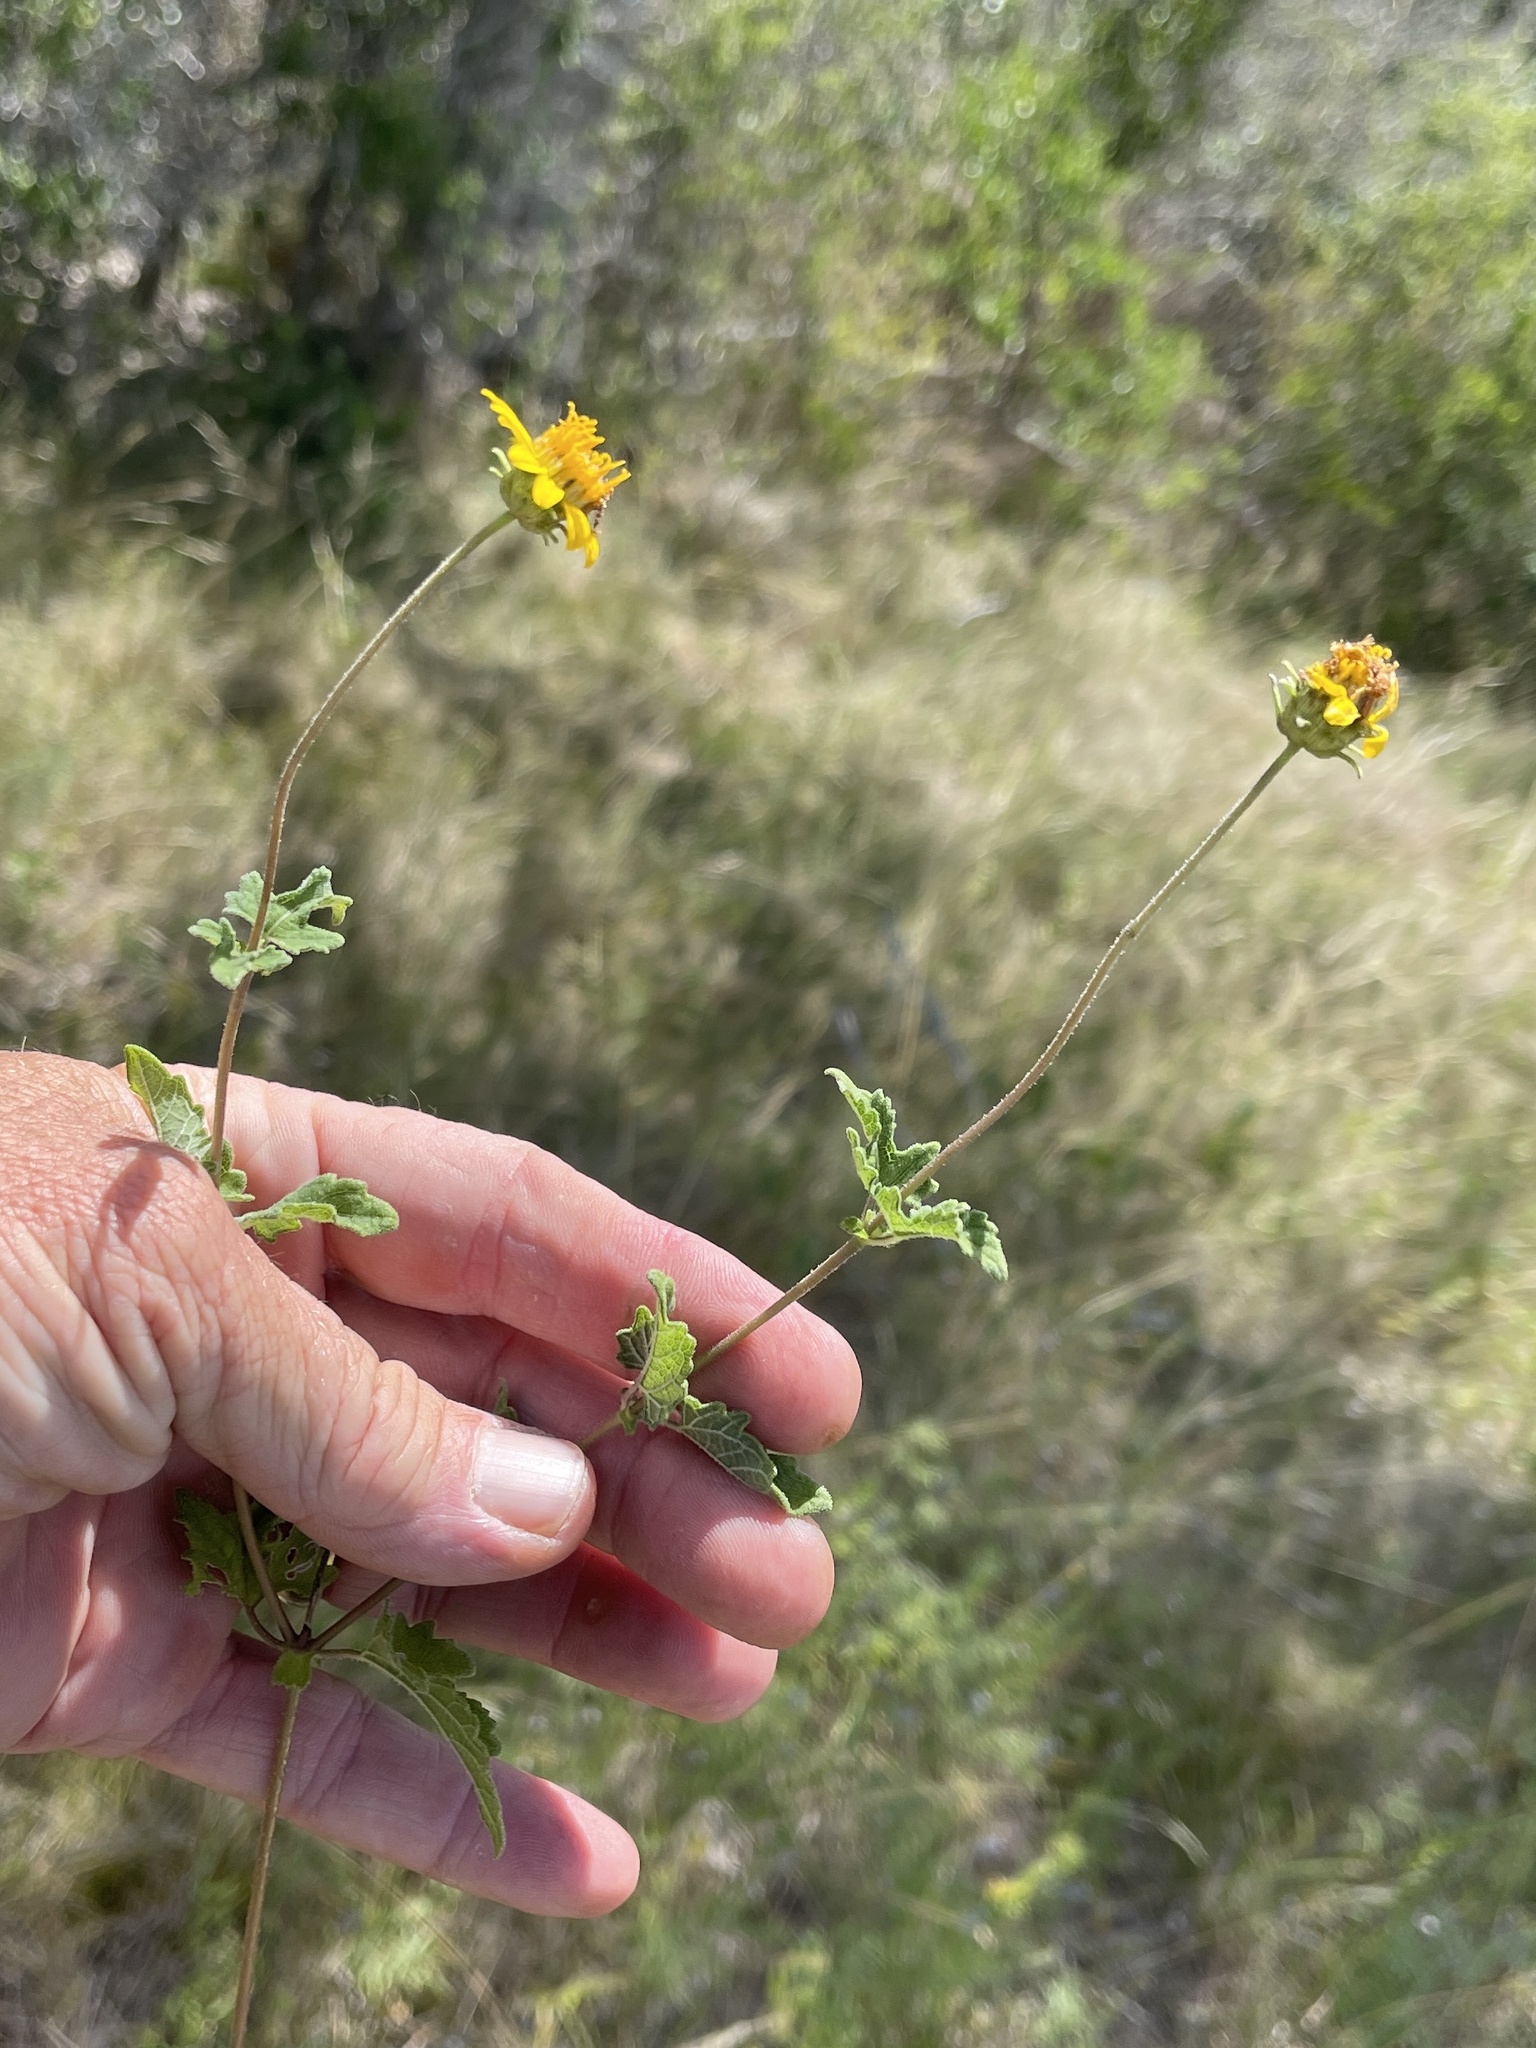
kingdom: Plantae
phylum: Tracheophyta
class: Magnoliopsida
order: Asterales
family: Asteraceae
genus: Simsia
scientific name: Simsia calva
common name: Awnless bush-sunflower
